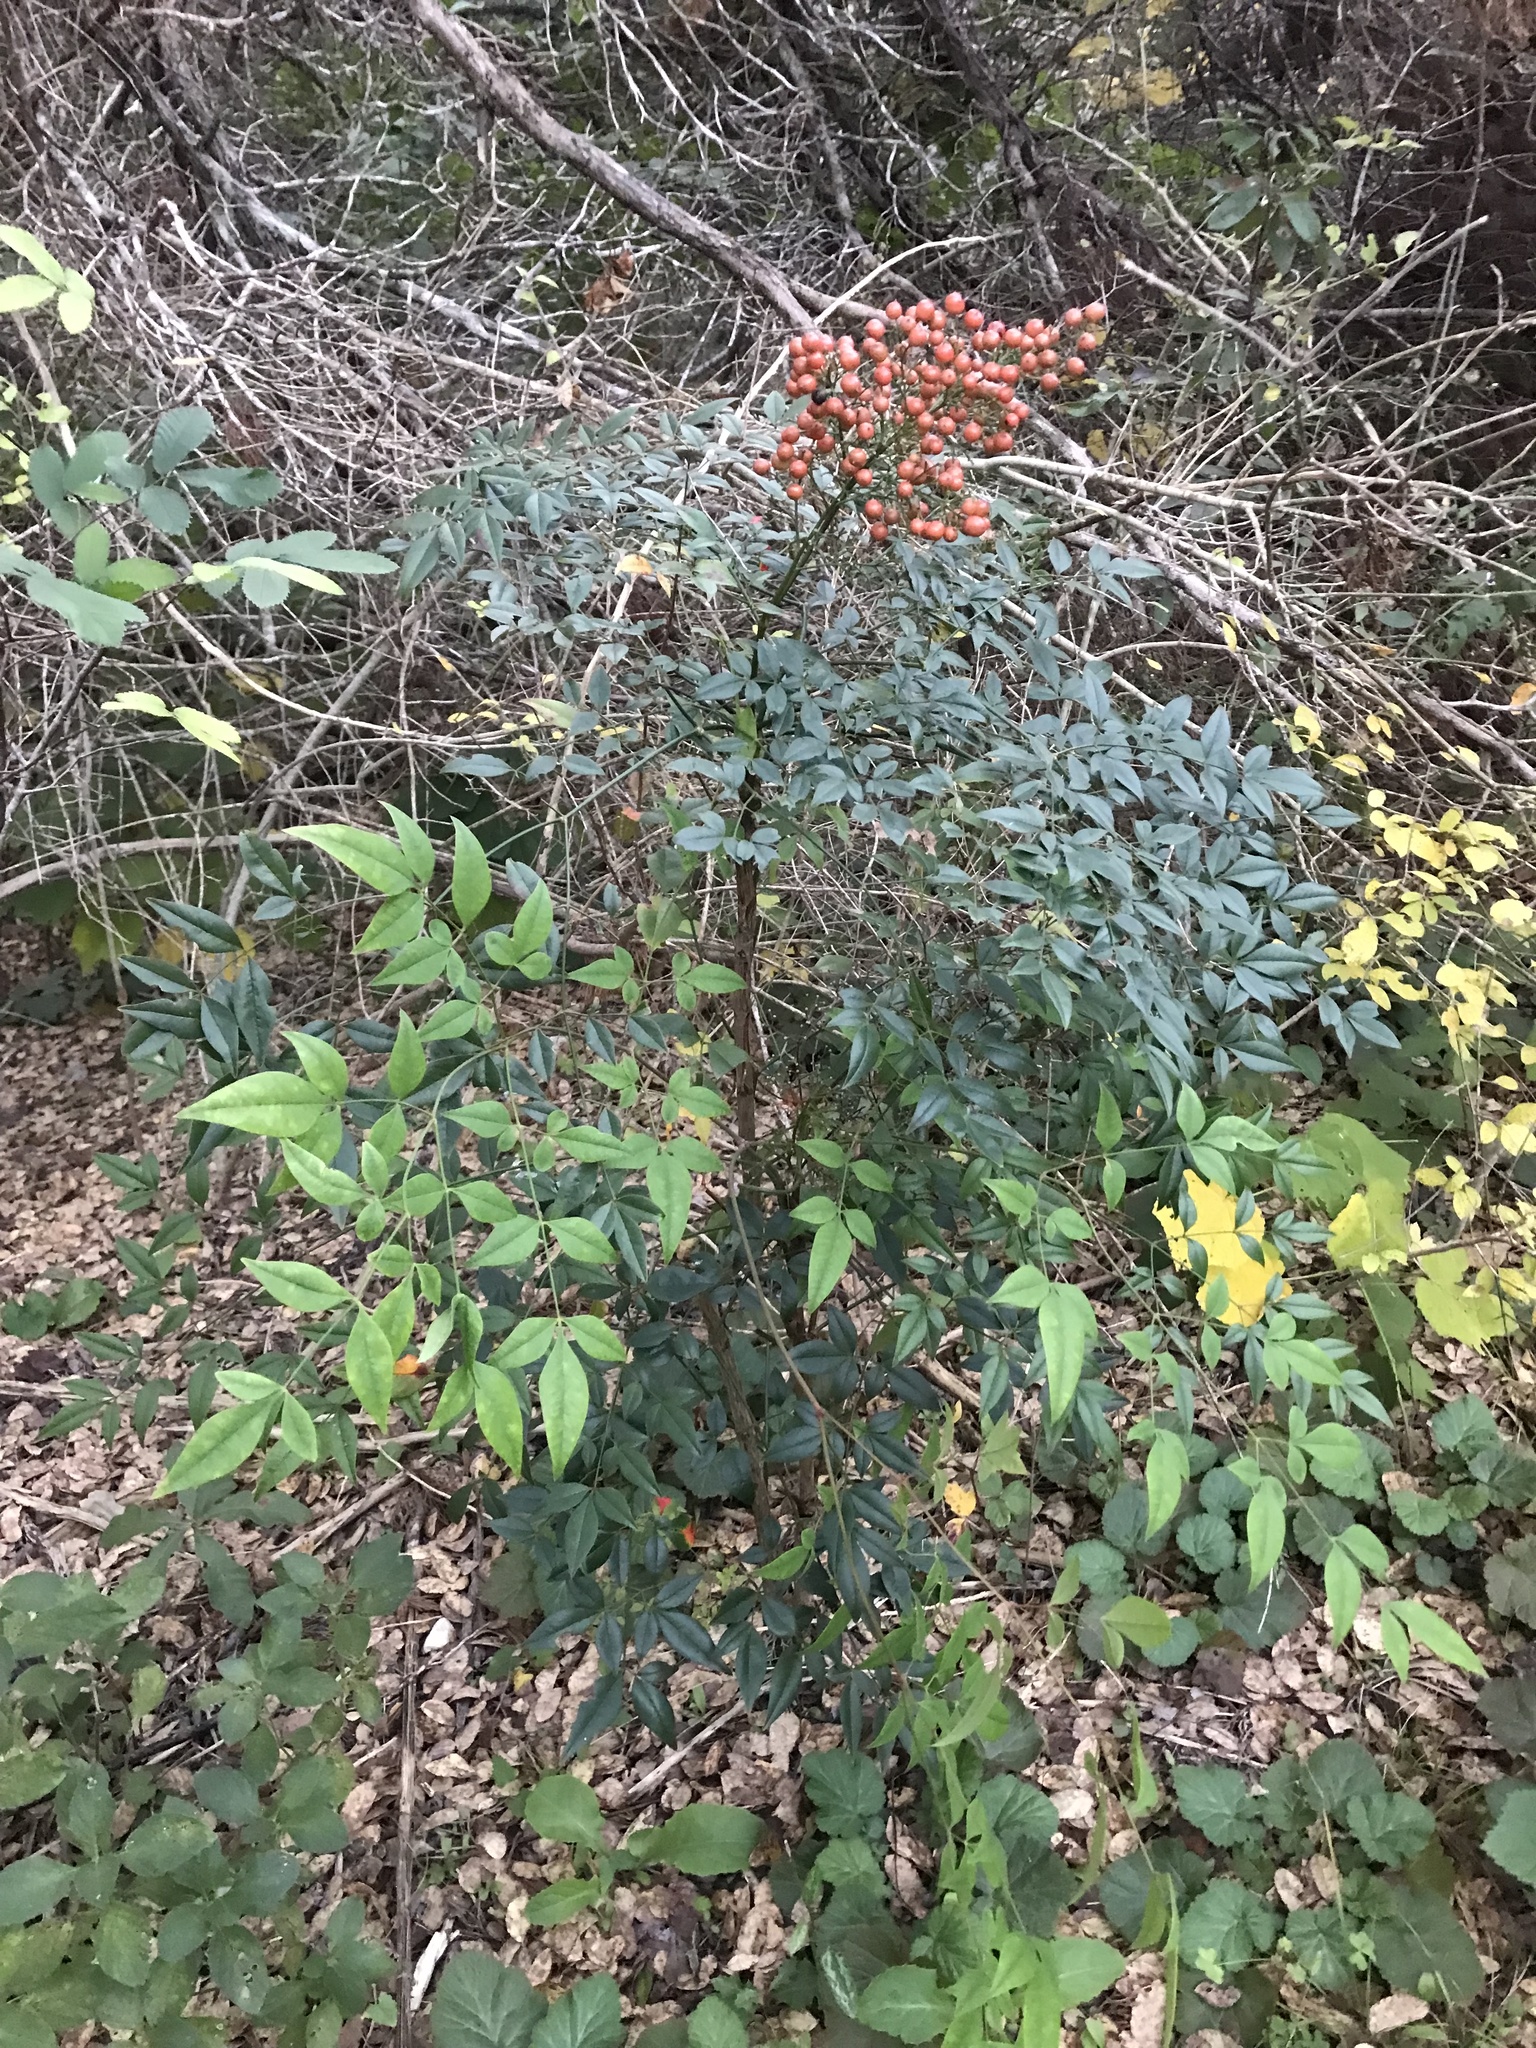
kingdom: Plantae
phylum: Tracheophyta
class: Magnoliopsida
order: Ranunculales
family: Berberidaceae
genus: Nandina
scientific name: Nandina domestica
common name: Sacred bamboo
